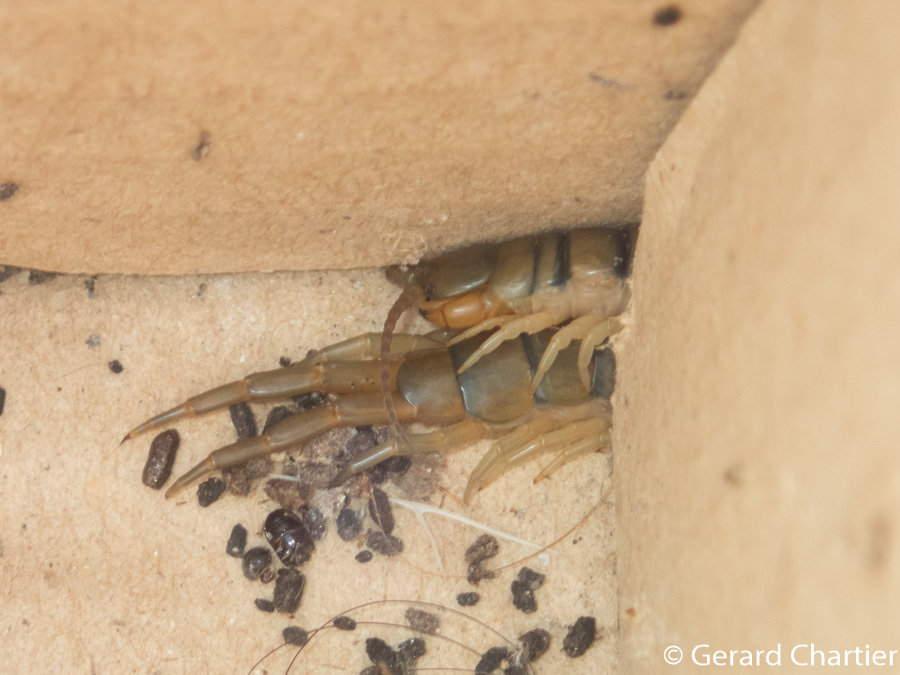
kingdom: Animalia
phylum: Arthropoda
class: Chilopoda
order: Scolopendromorpha
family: Scolopendridae
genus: Scolopendra
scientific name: Scolopendra morsitans
